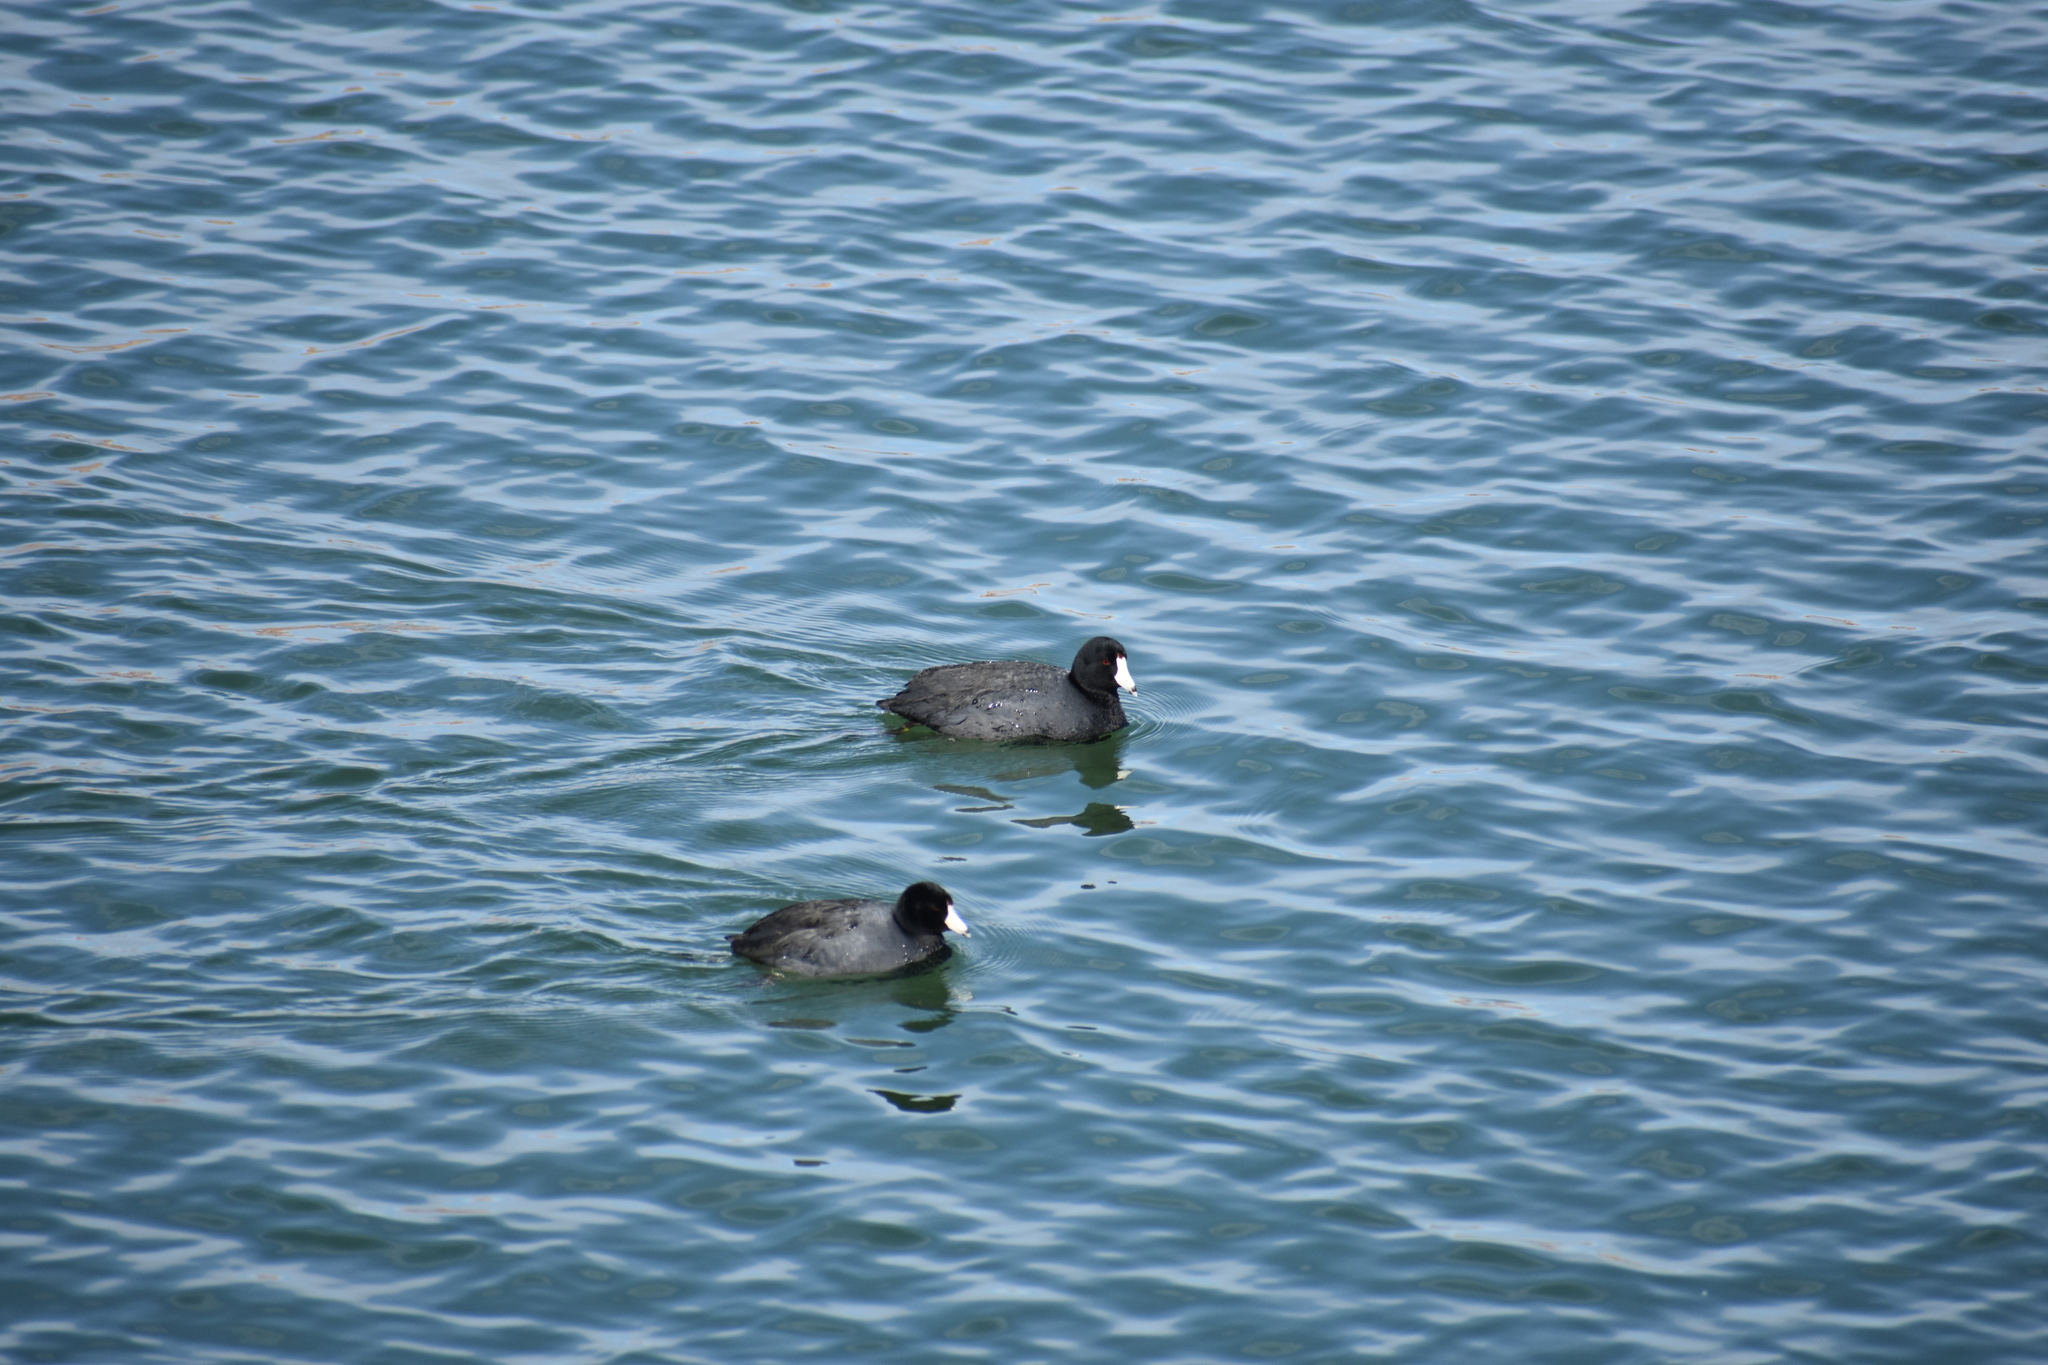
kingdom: Animalia
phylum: Chordata
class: Aves
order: Gruiformes
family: Rallidae
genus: Fulica
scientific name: Fulica americana
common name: American coot
